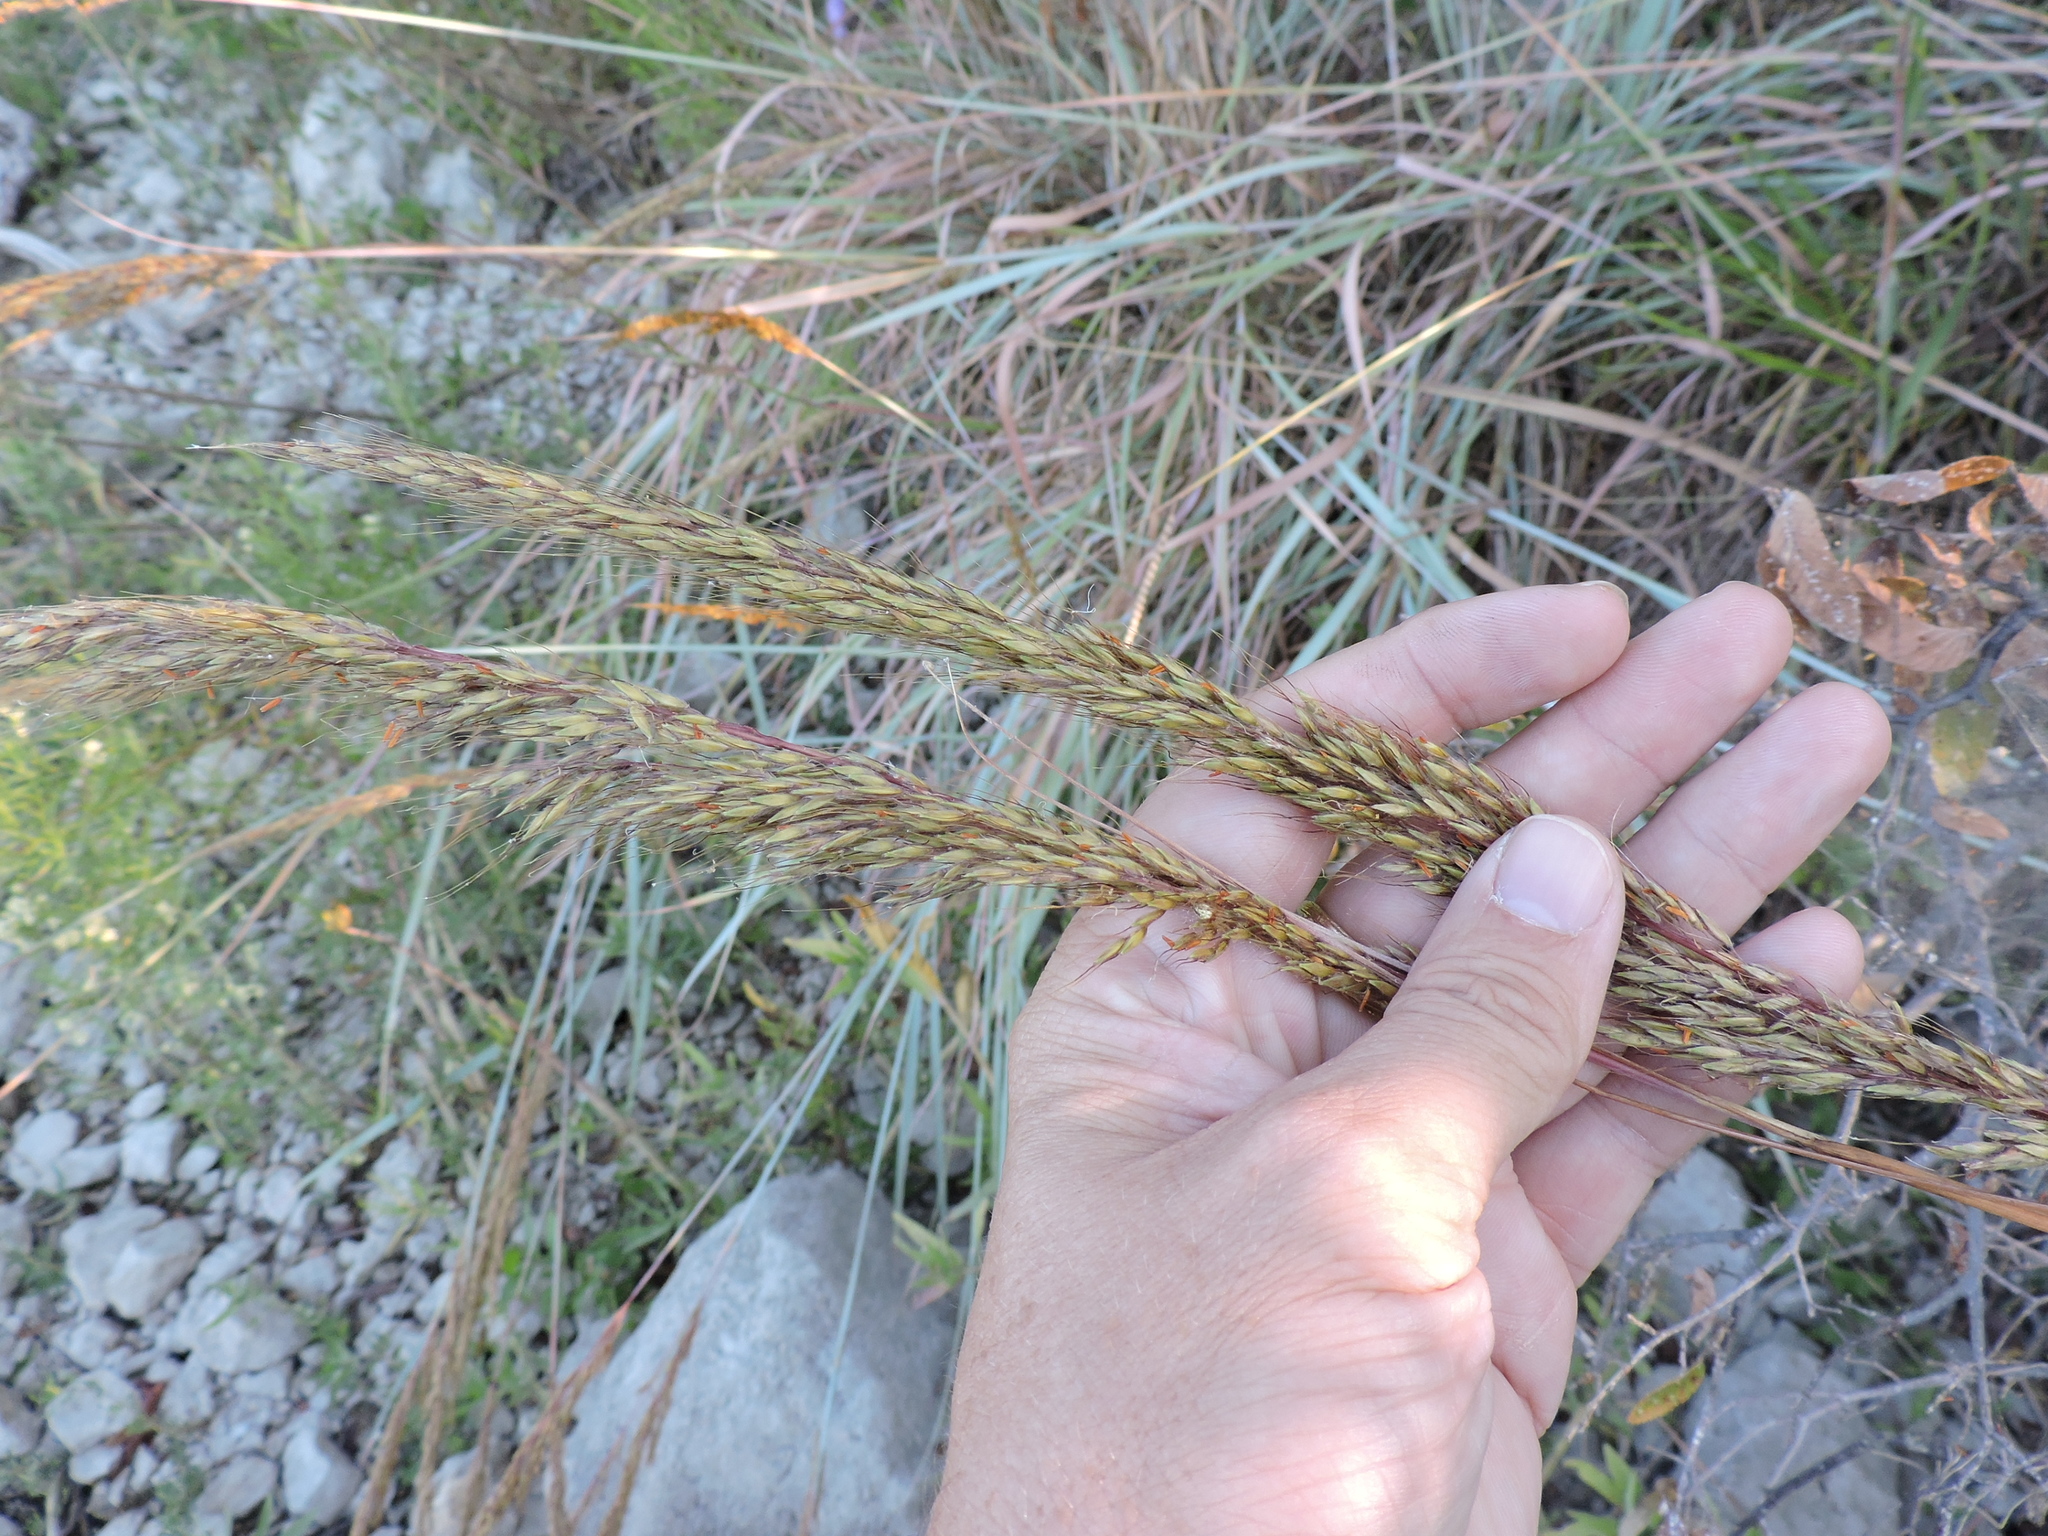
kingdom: Plantae
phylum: Tracheophyta
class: Liliopsida
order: Poales
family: Poaceae
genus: Sorghastrum
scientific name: Sorghastrum nutans
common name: Indian grass
